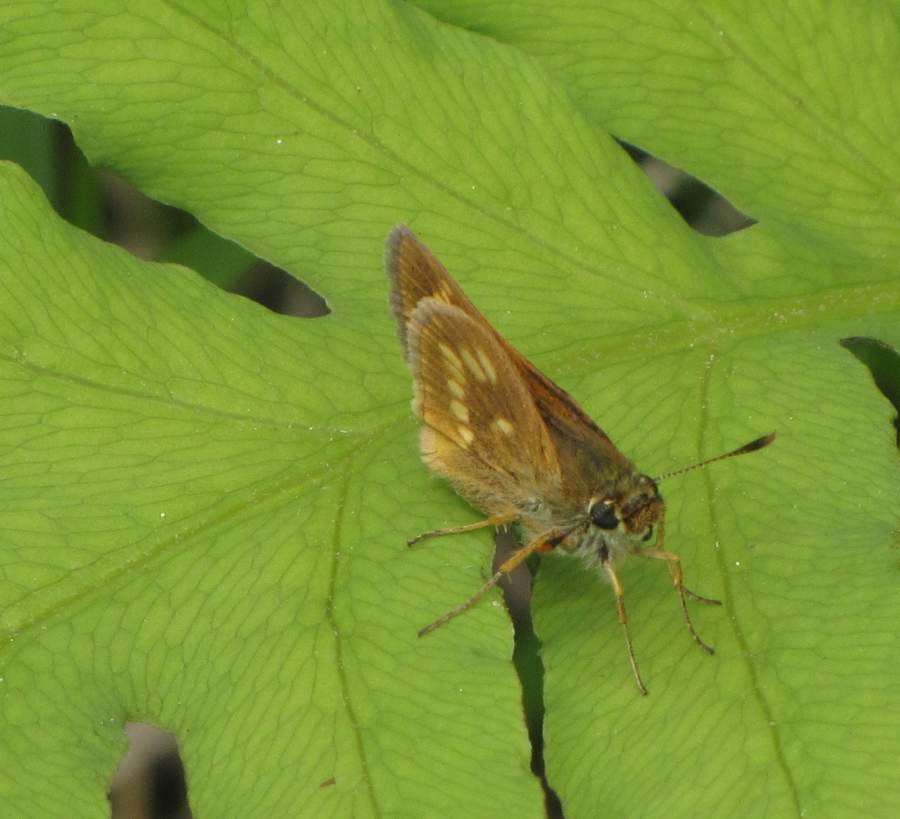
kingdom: Animalia
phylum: Arthropoda
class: Insecta
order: Lepidoptera
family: Hesperiidae
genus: Polites
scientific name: Polites mystic
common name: Long dash
